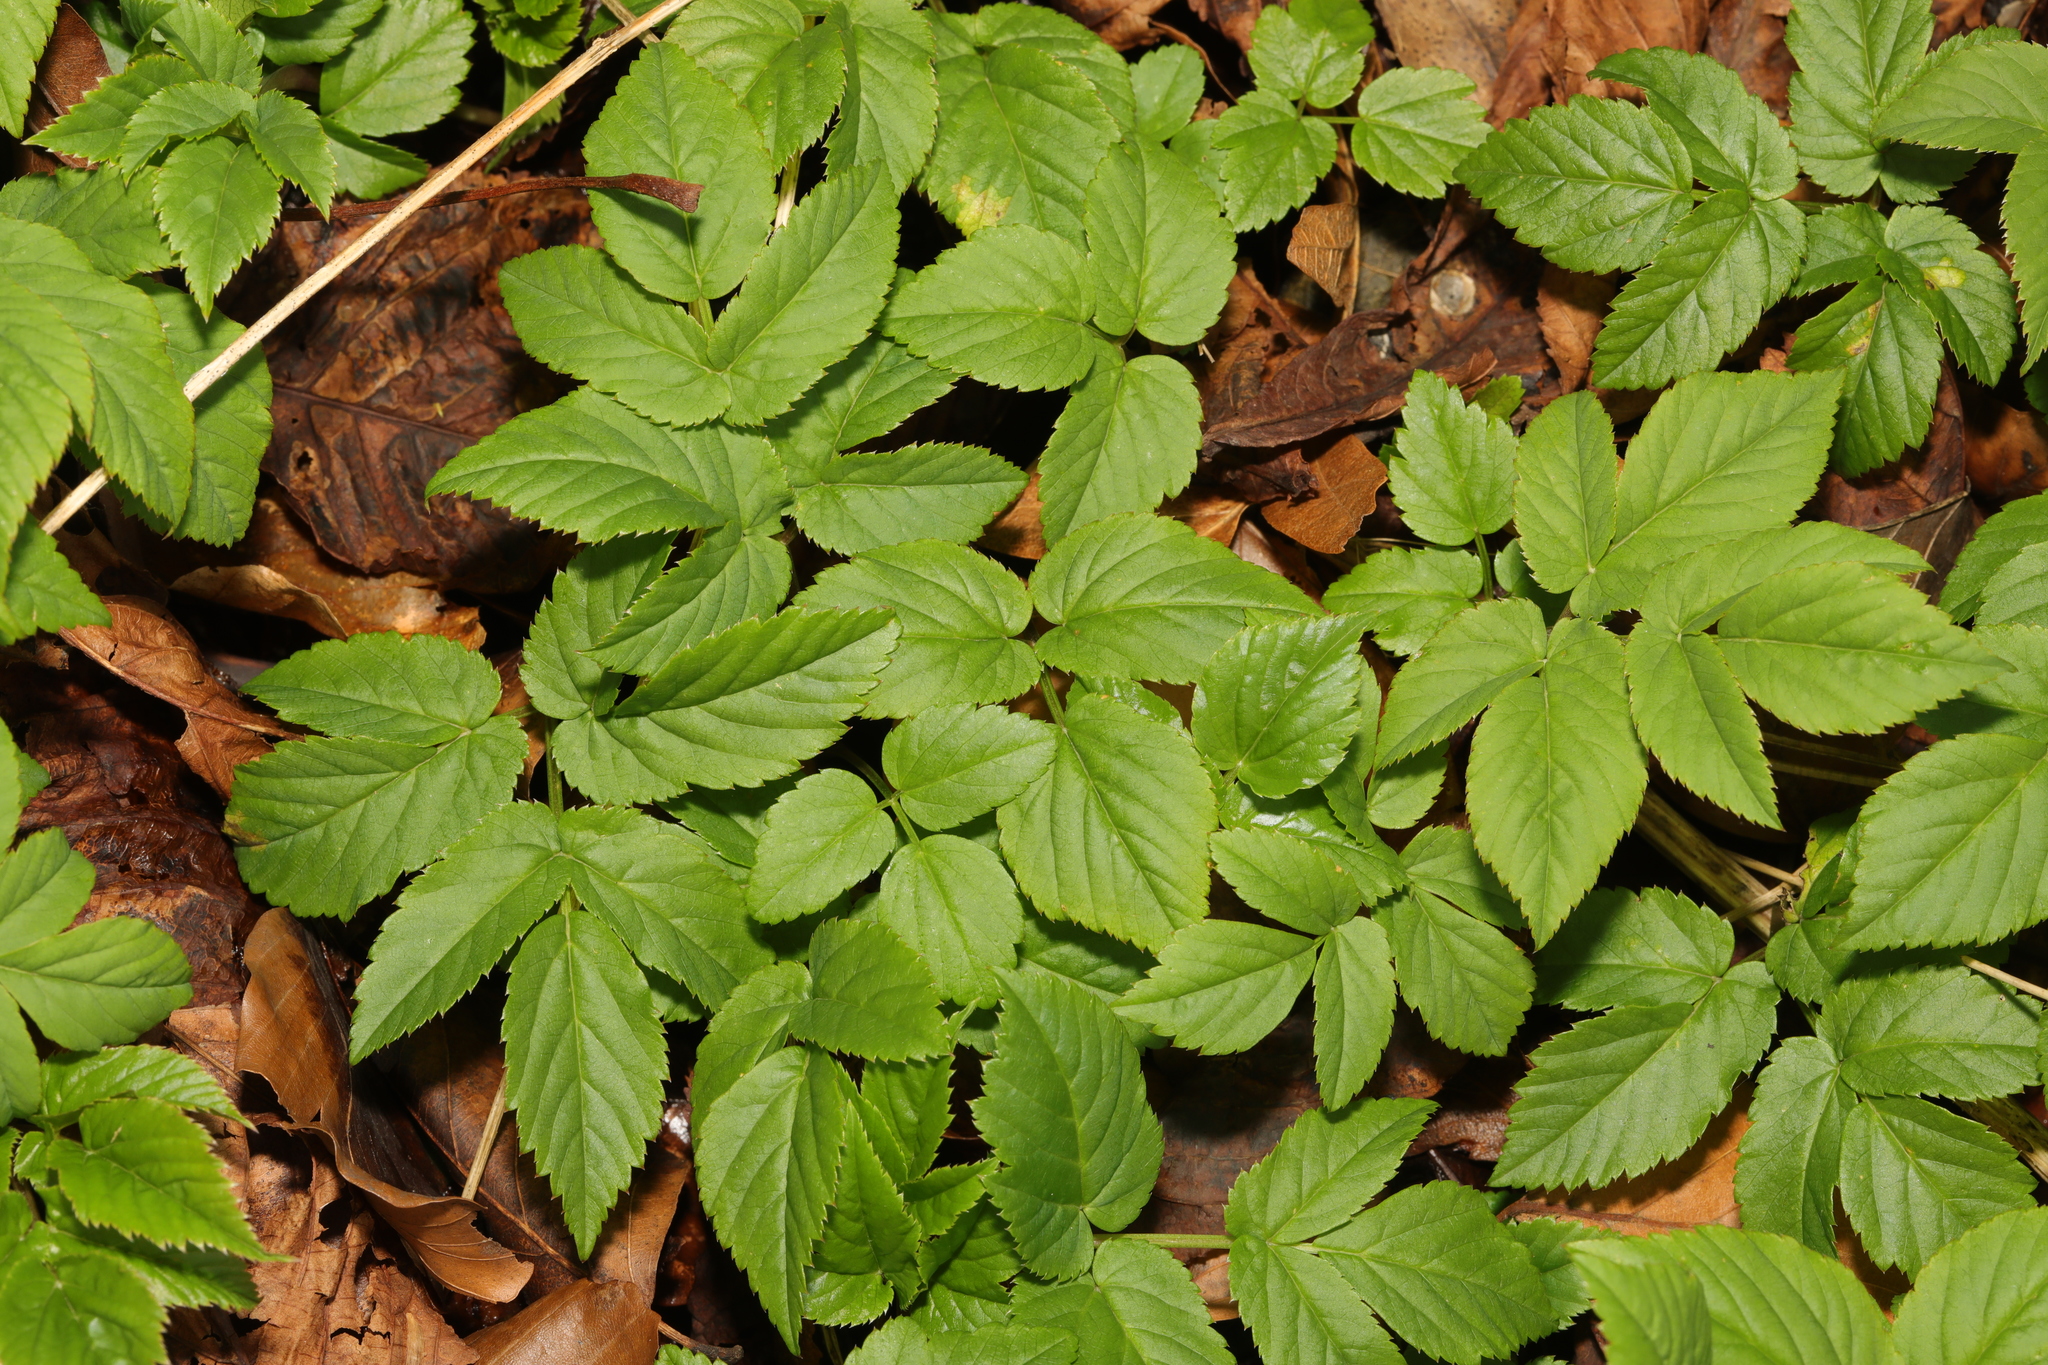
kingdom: Plantae
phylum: Tracheophyta
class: Magnoliopsida
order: Apiales
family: Apiaceae
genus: Aegopodium
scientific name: Aegopodium podagraria
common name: Ground-elder
